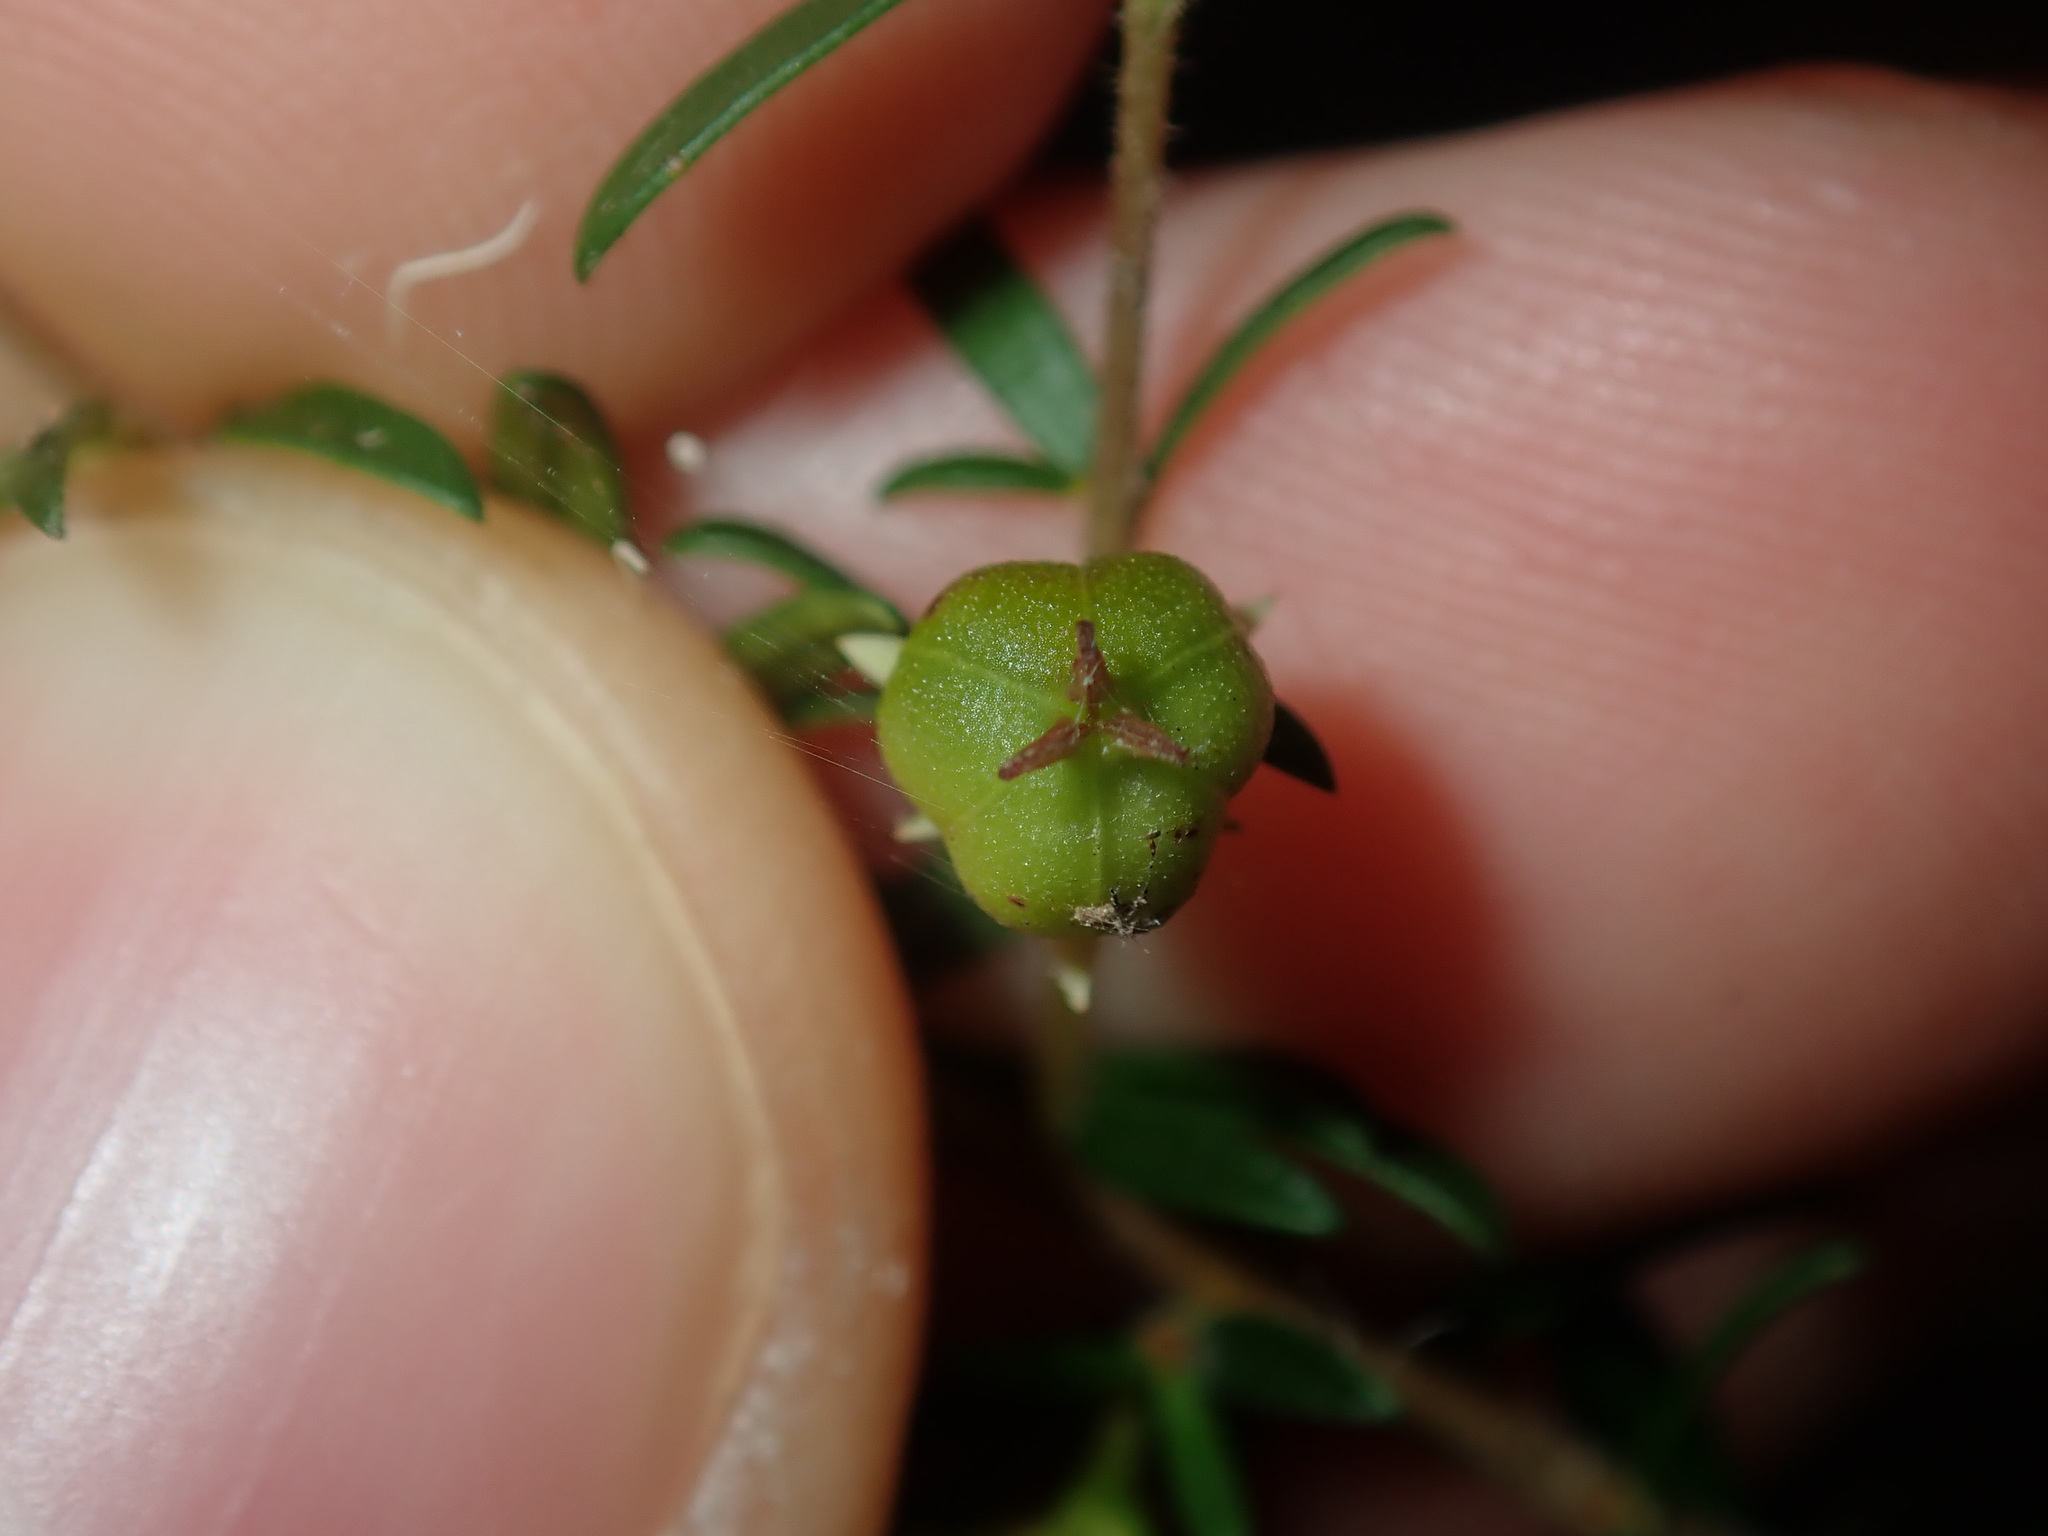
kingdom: Plantae
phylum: Tracheophyta
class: Magnoliopsida
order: Malpighiales
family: Picrodendraceae
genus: Micrantheum
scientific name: Micrantheum ericoides
